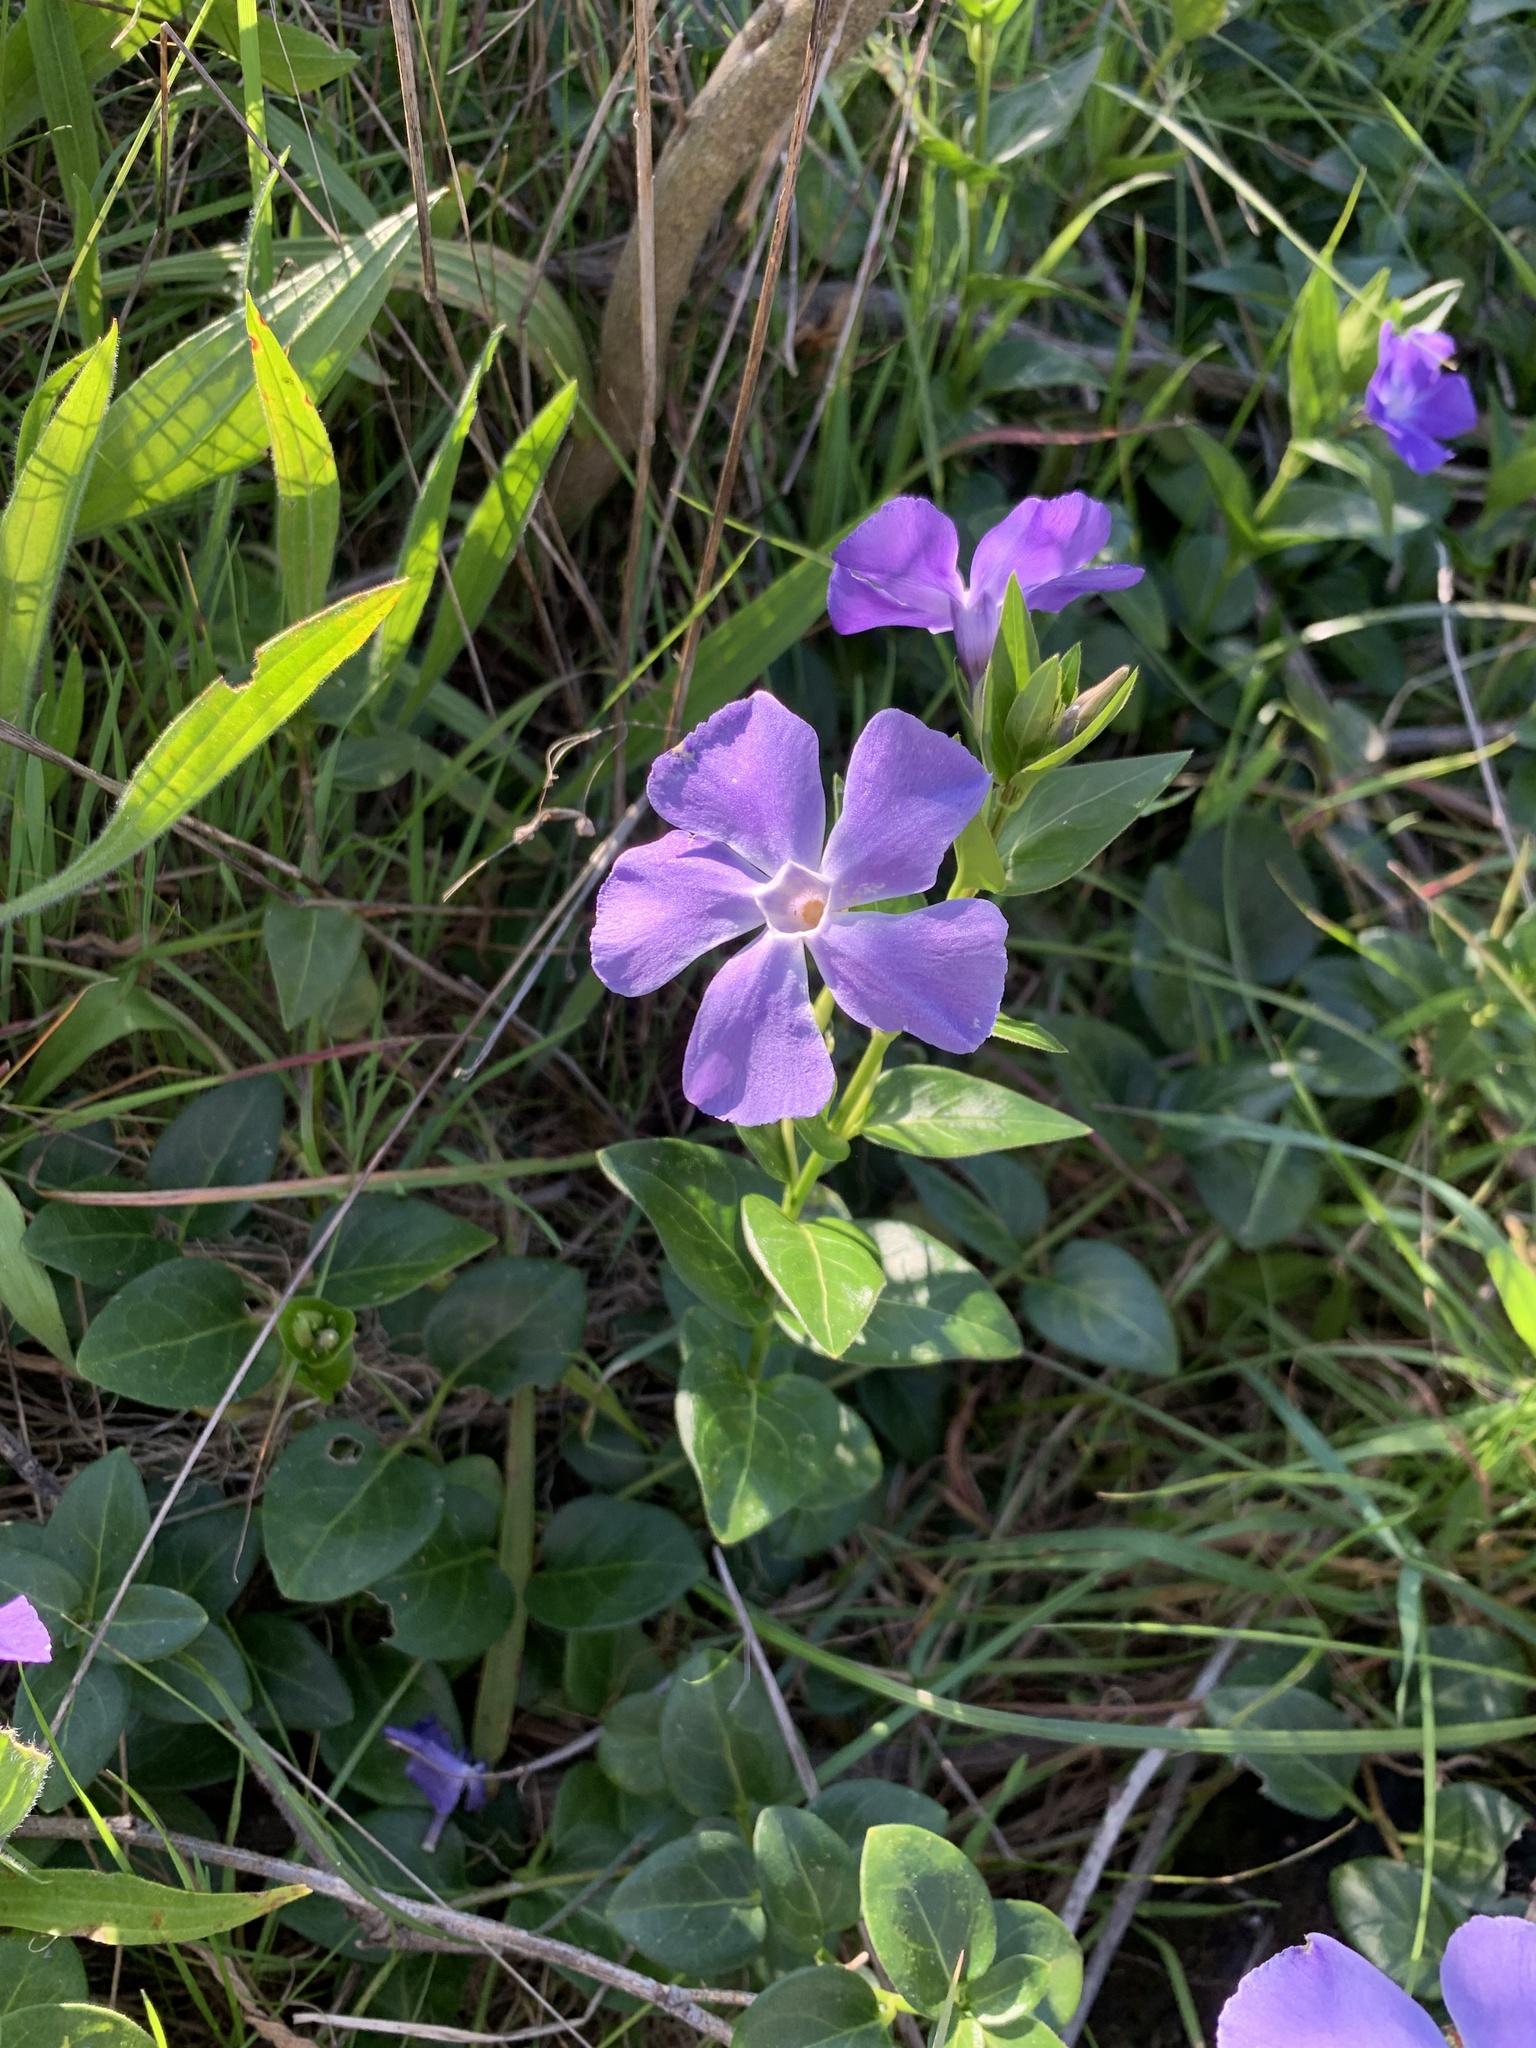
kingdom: Plantae
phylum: Tracheophyta
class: Magnoliopsida
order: Gentianales
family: Apocynaceae
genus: Vinca
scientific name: Vinca major
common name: Greater periwinkle
